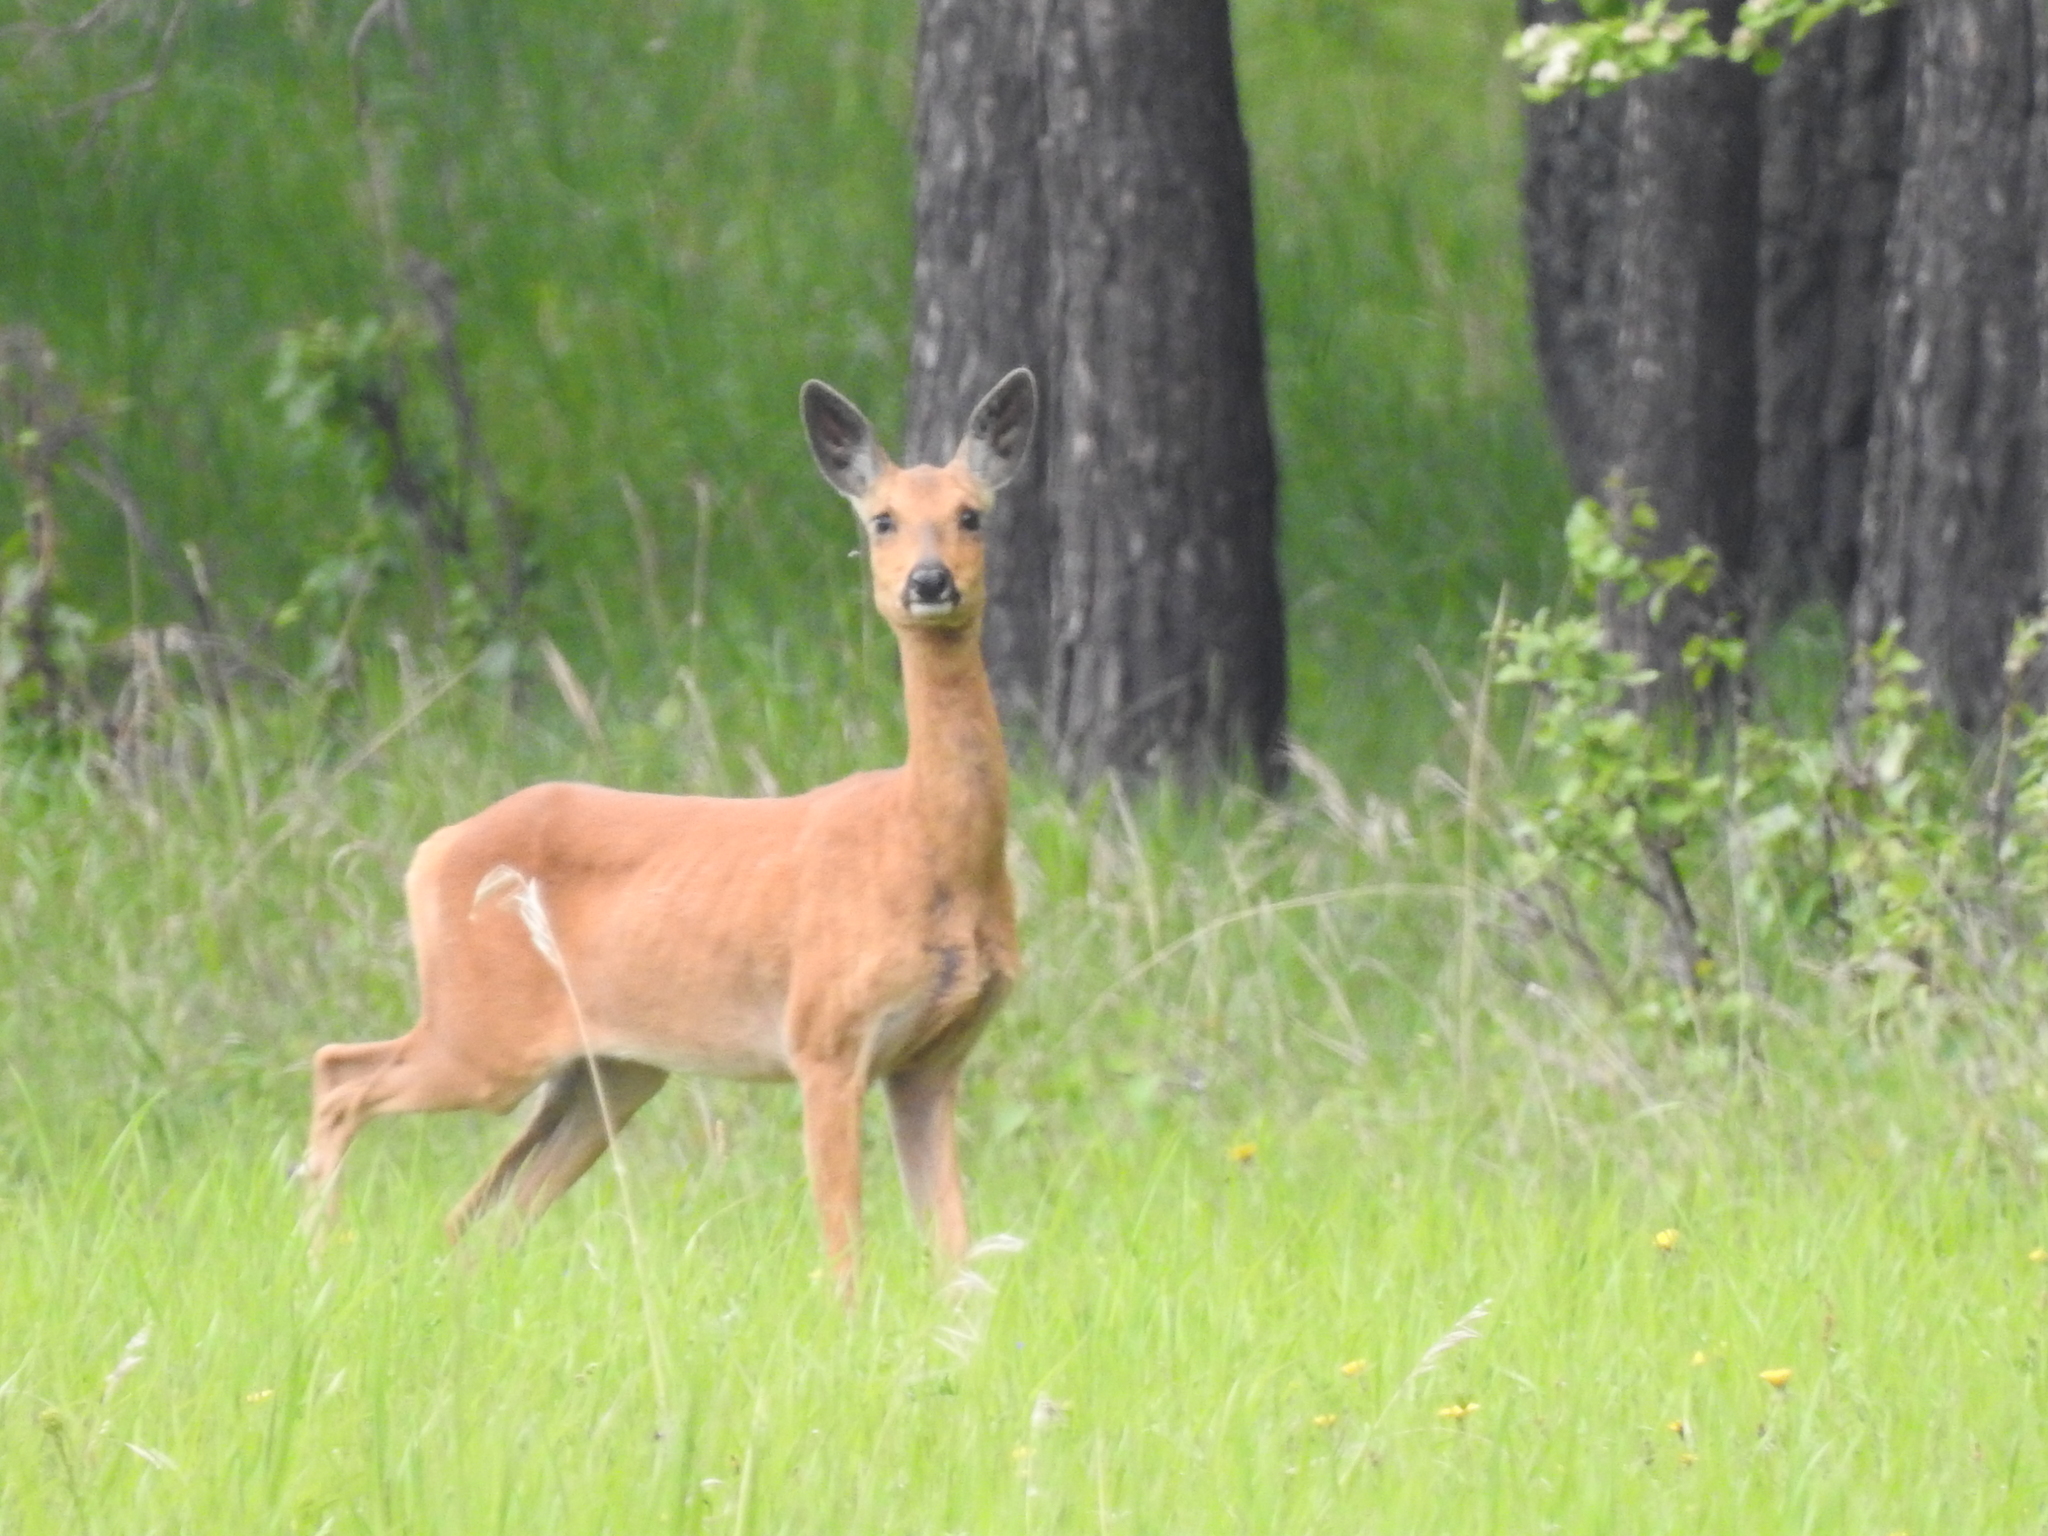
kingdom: Animalia
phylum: Chordata
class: Mammalia
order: Artiodactyla
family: Cervidae
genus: Capreolus
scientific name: Capreolus pygargus
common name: Siberian roe
